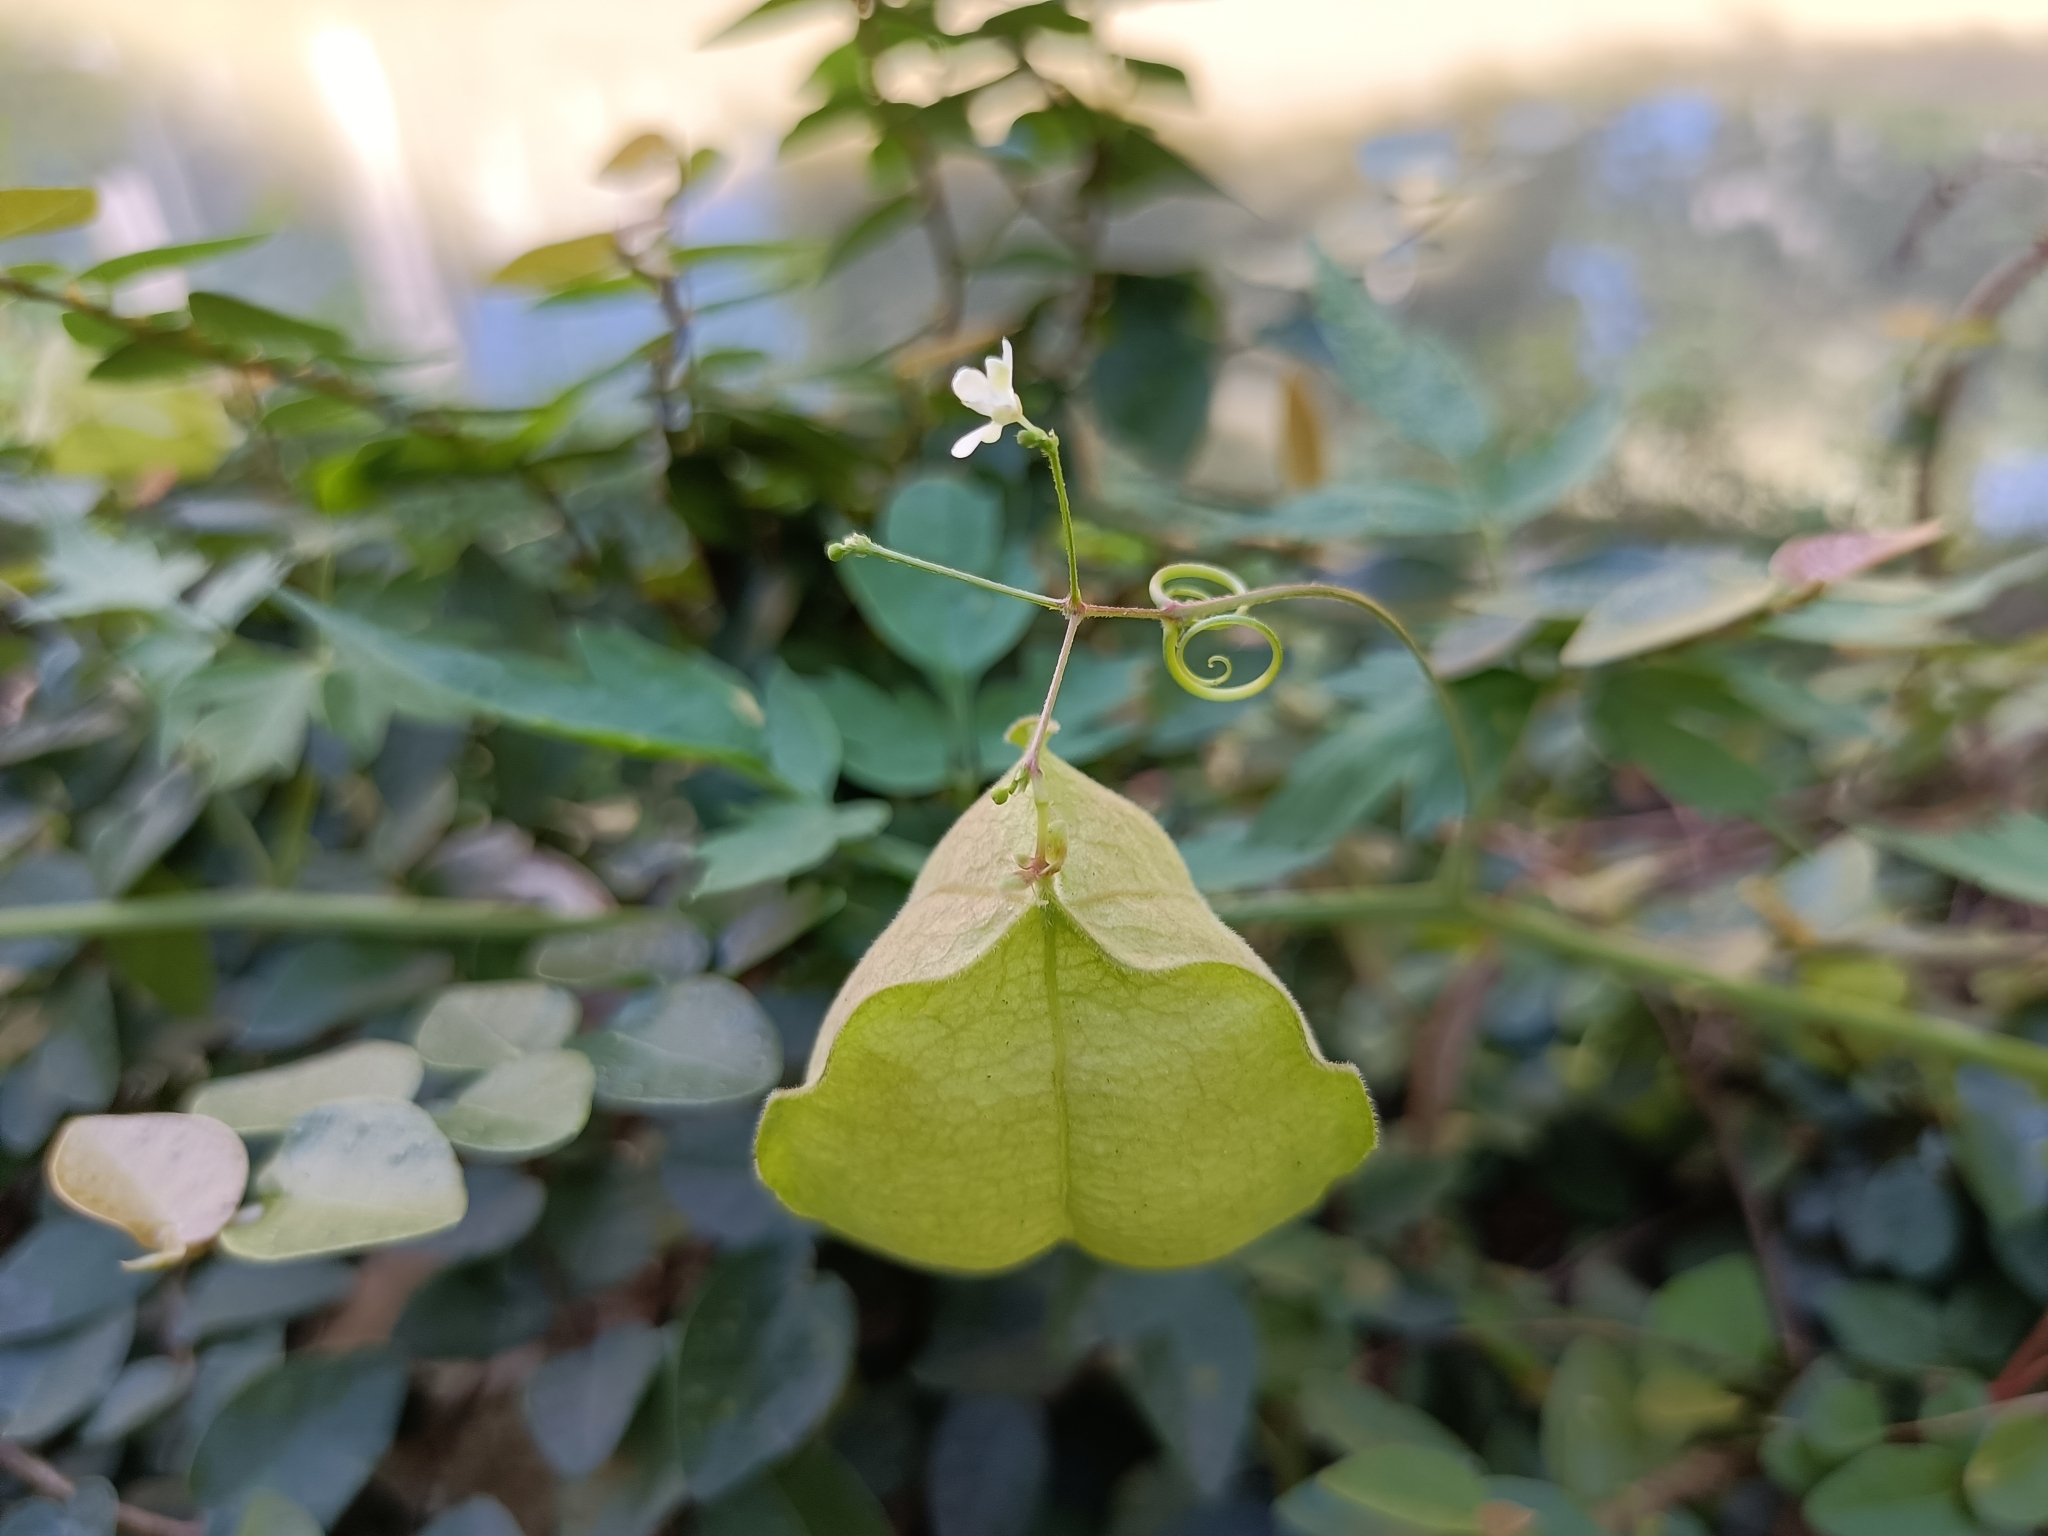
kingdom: Plantae
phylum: Tracheophyta
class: Magnoliopsida
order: Sapindales
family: Sapindaceae
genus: Cardiospermum
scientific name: Cardiospermum halicacabum
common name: Balloon vine
